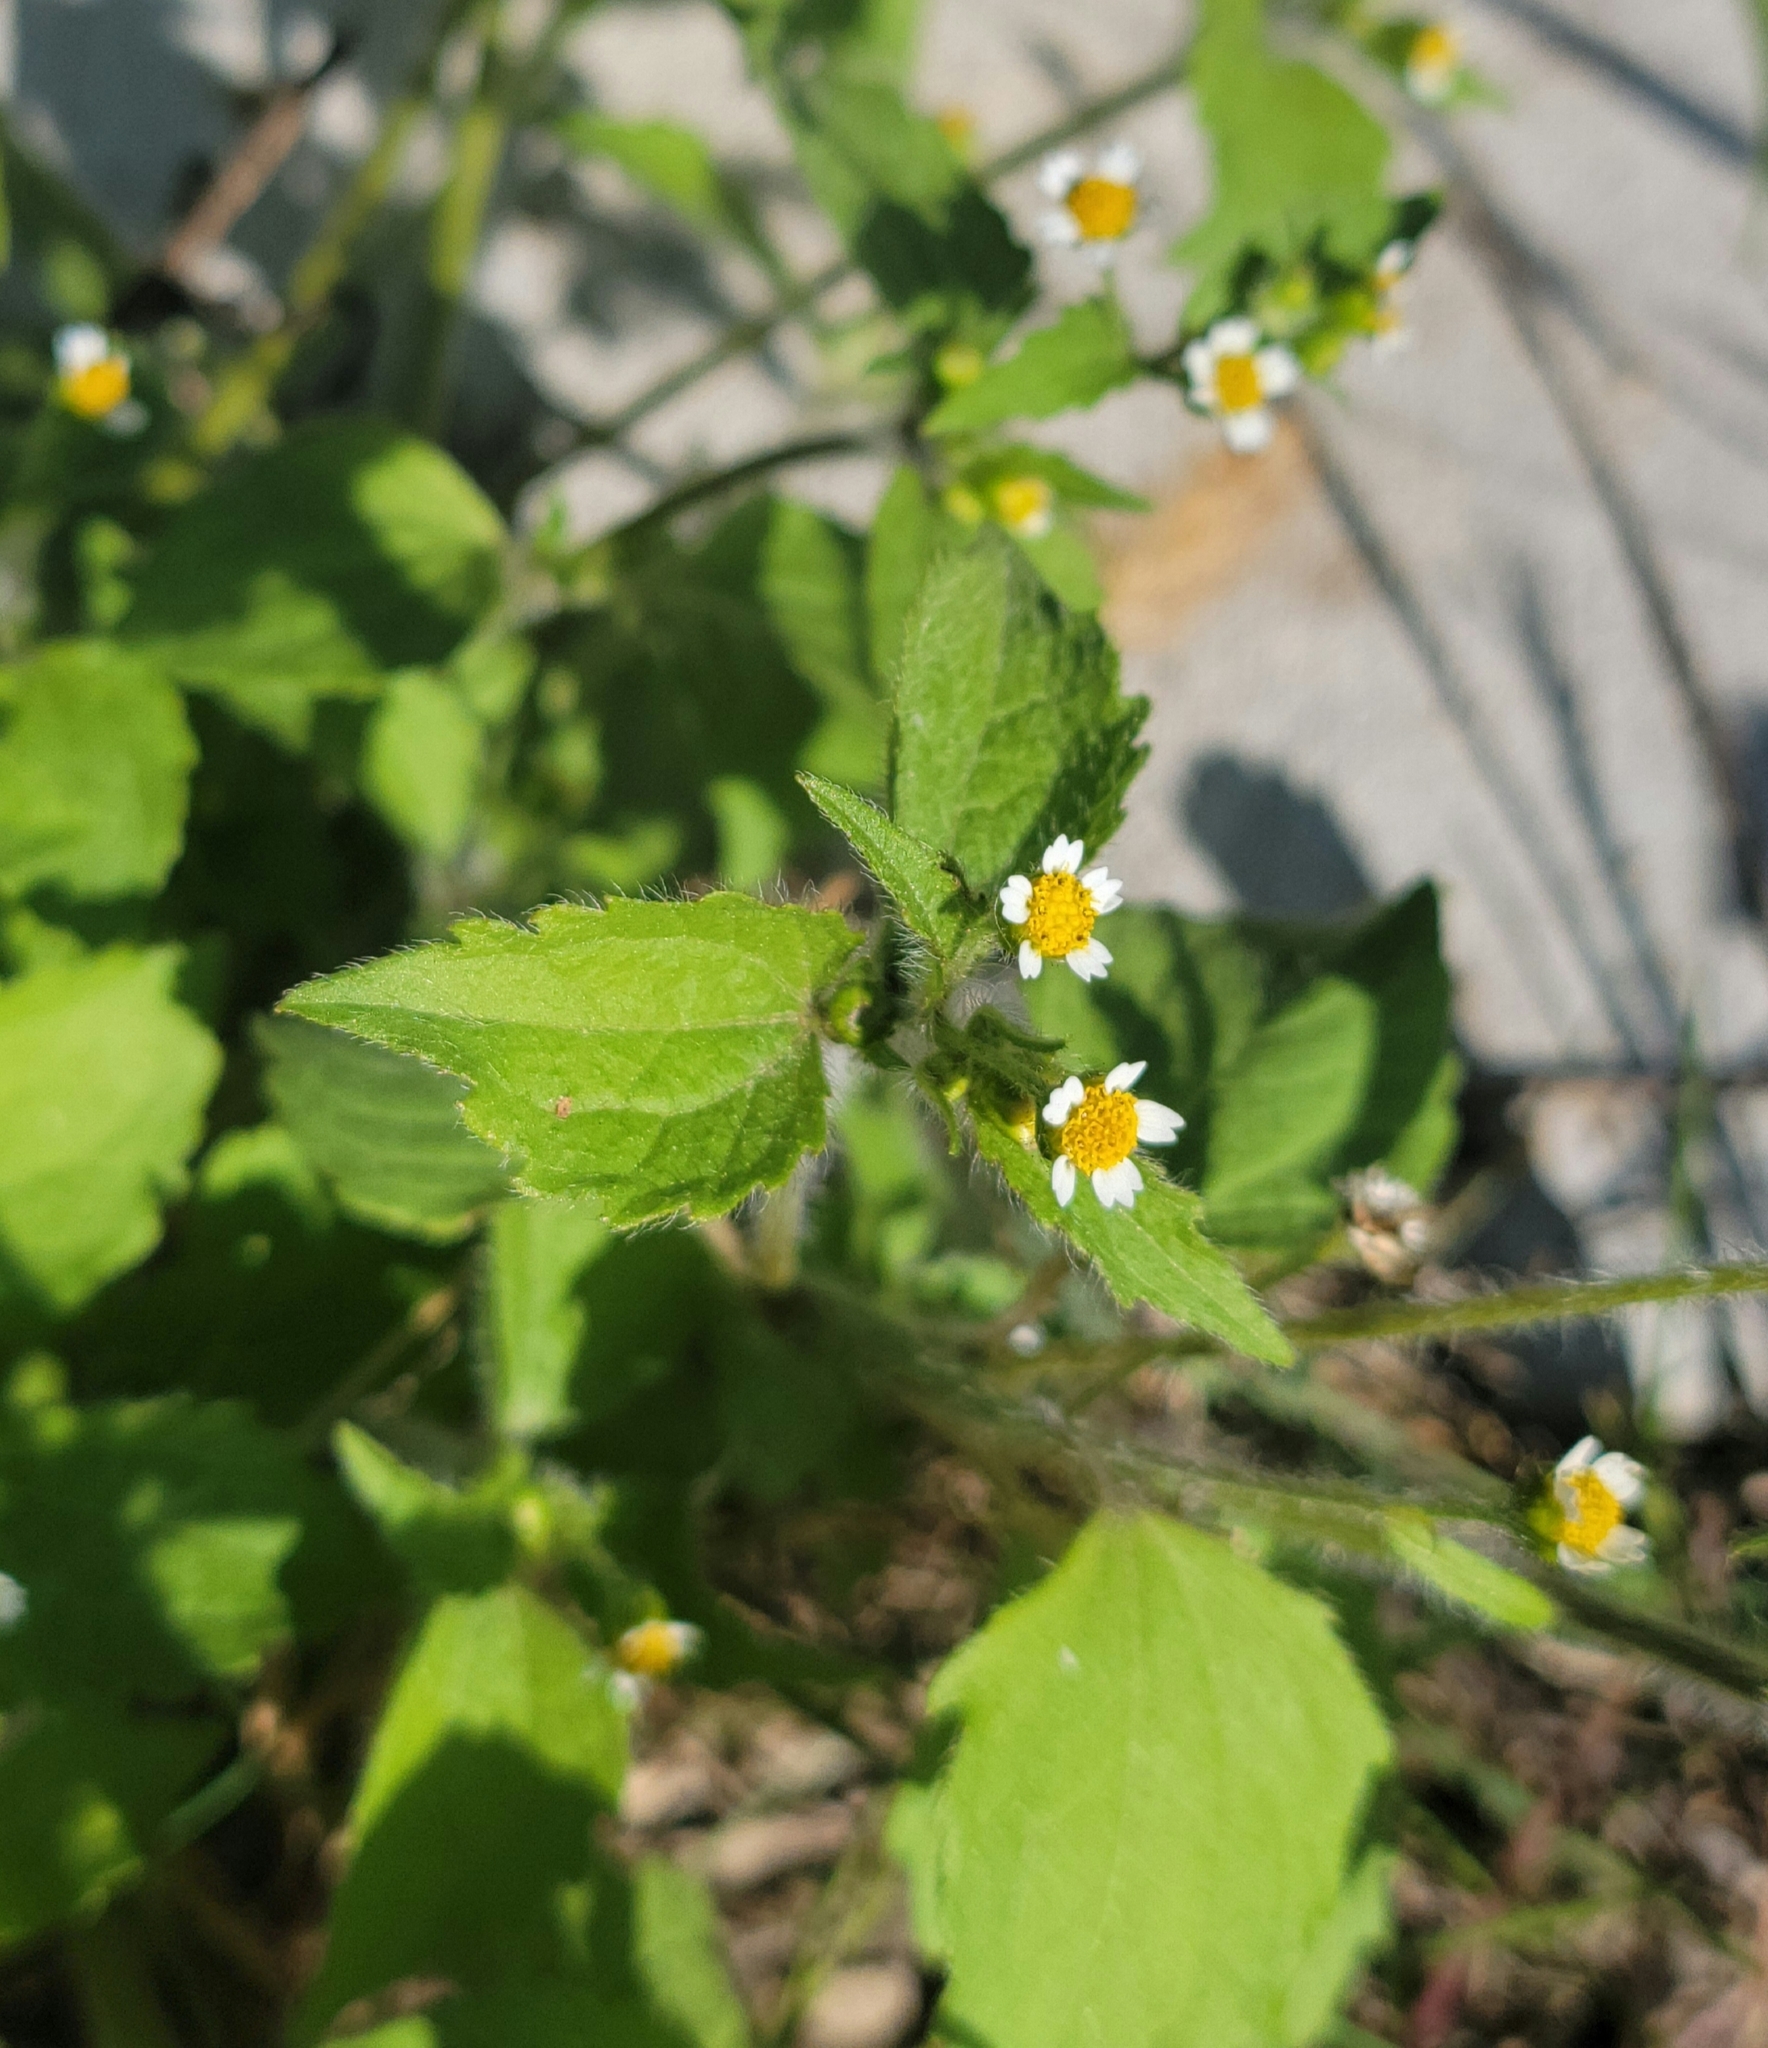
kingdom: Plantae
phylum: Tracheophyta
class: Magnoliopsida
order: Asterales
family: Asteraceae
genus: Galinsoga
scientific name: Galinsoga quadriradiata
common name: Shaggy soldier
